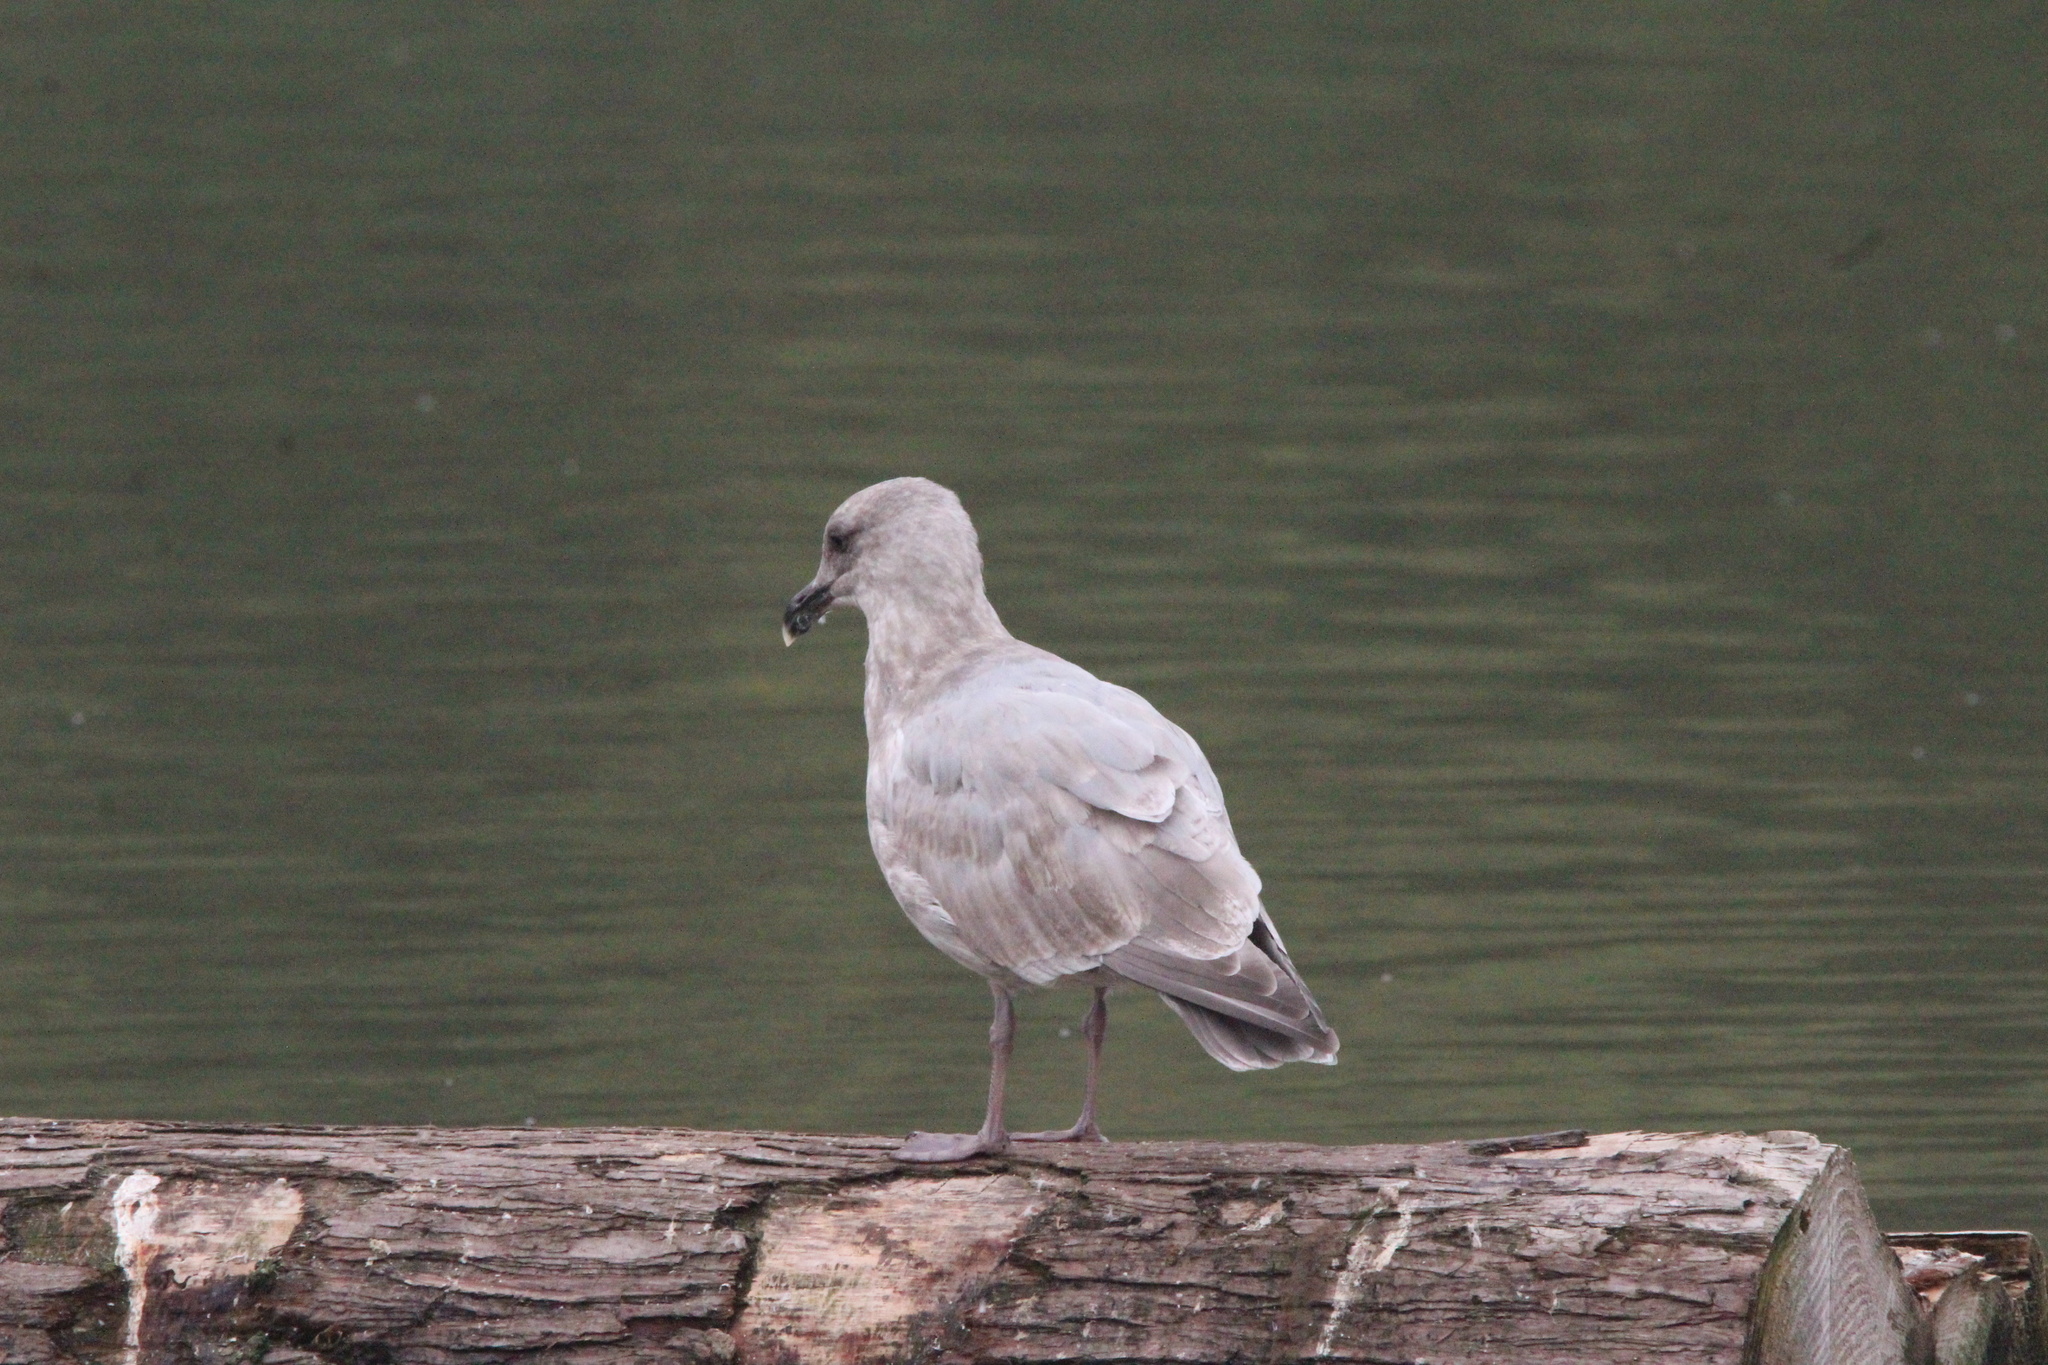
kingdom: Animalia
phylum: Chordata
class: Aves
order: Charadriiformes
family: Laridae
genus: Larus
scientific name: Larus
